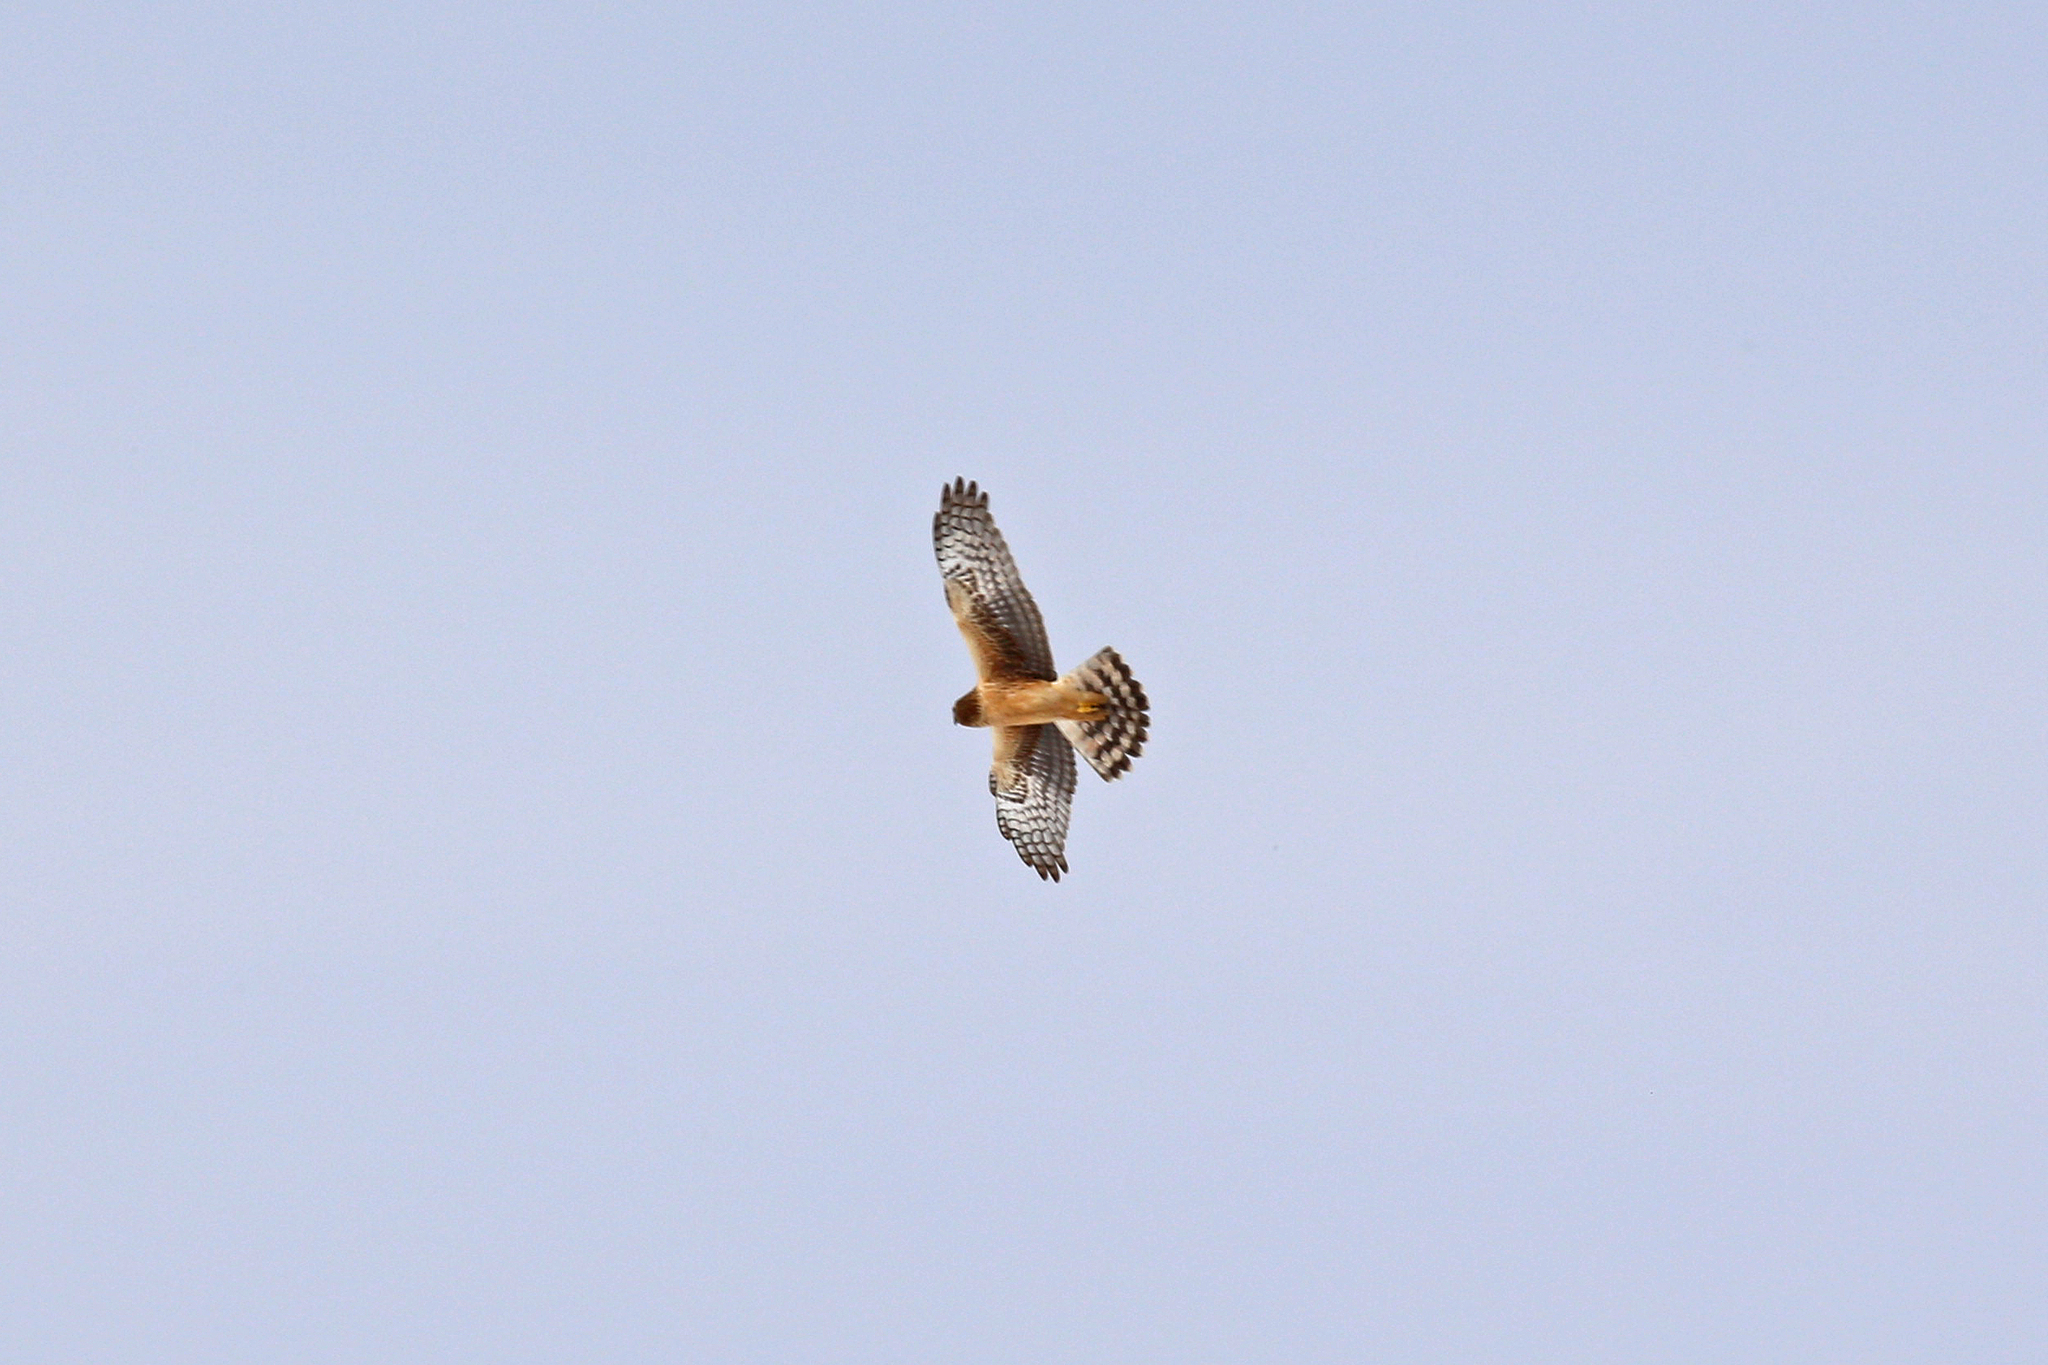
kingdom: Animalia
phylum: Chordata
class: Aves
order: Accipitriformes
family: Accipitridae
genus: Circus
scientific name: Circus cyaneus
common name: Hen harrier
